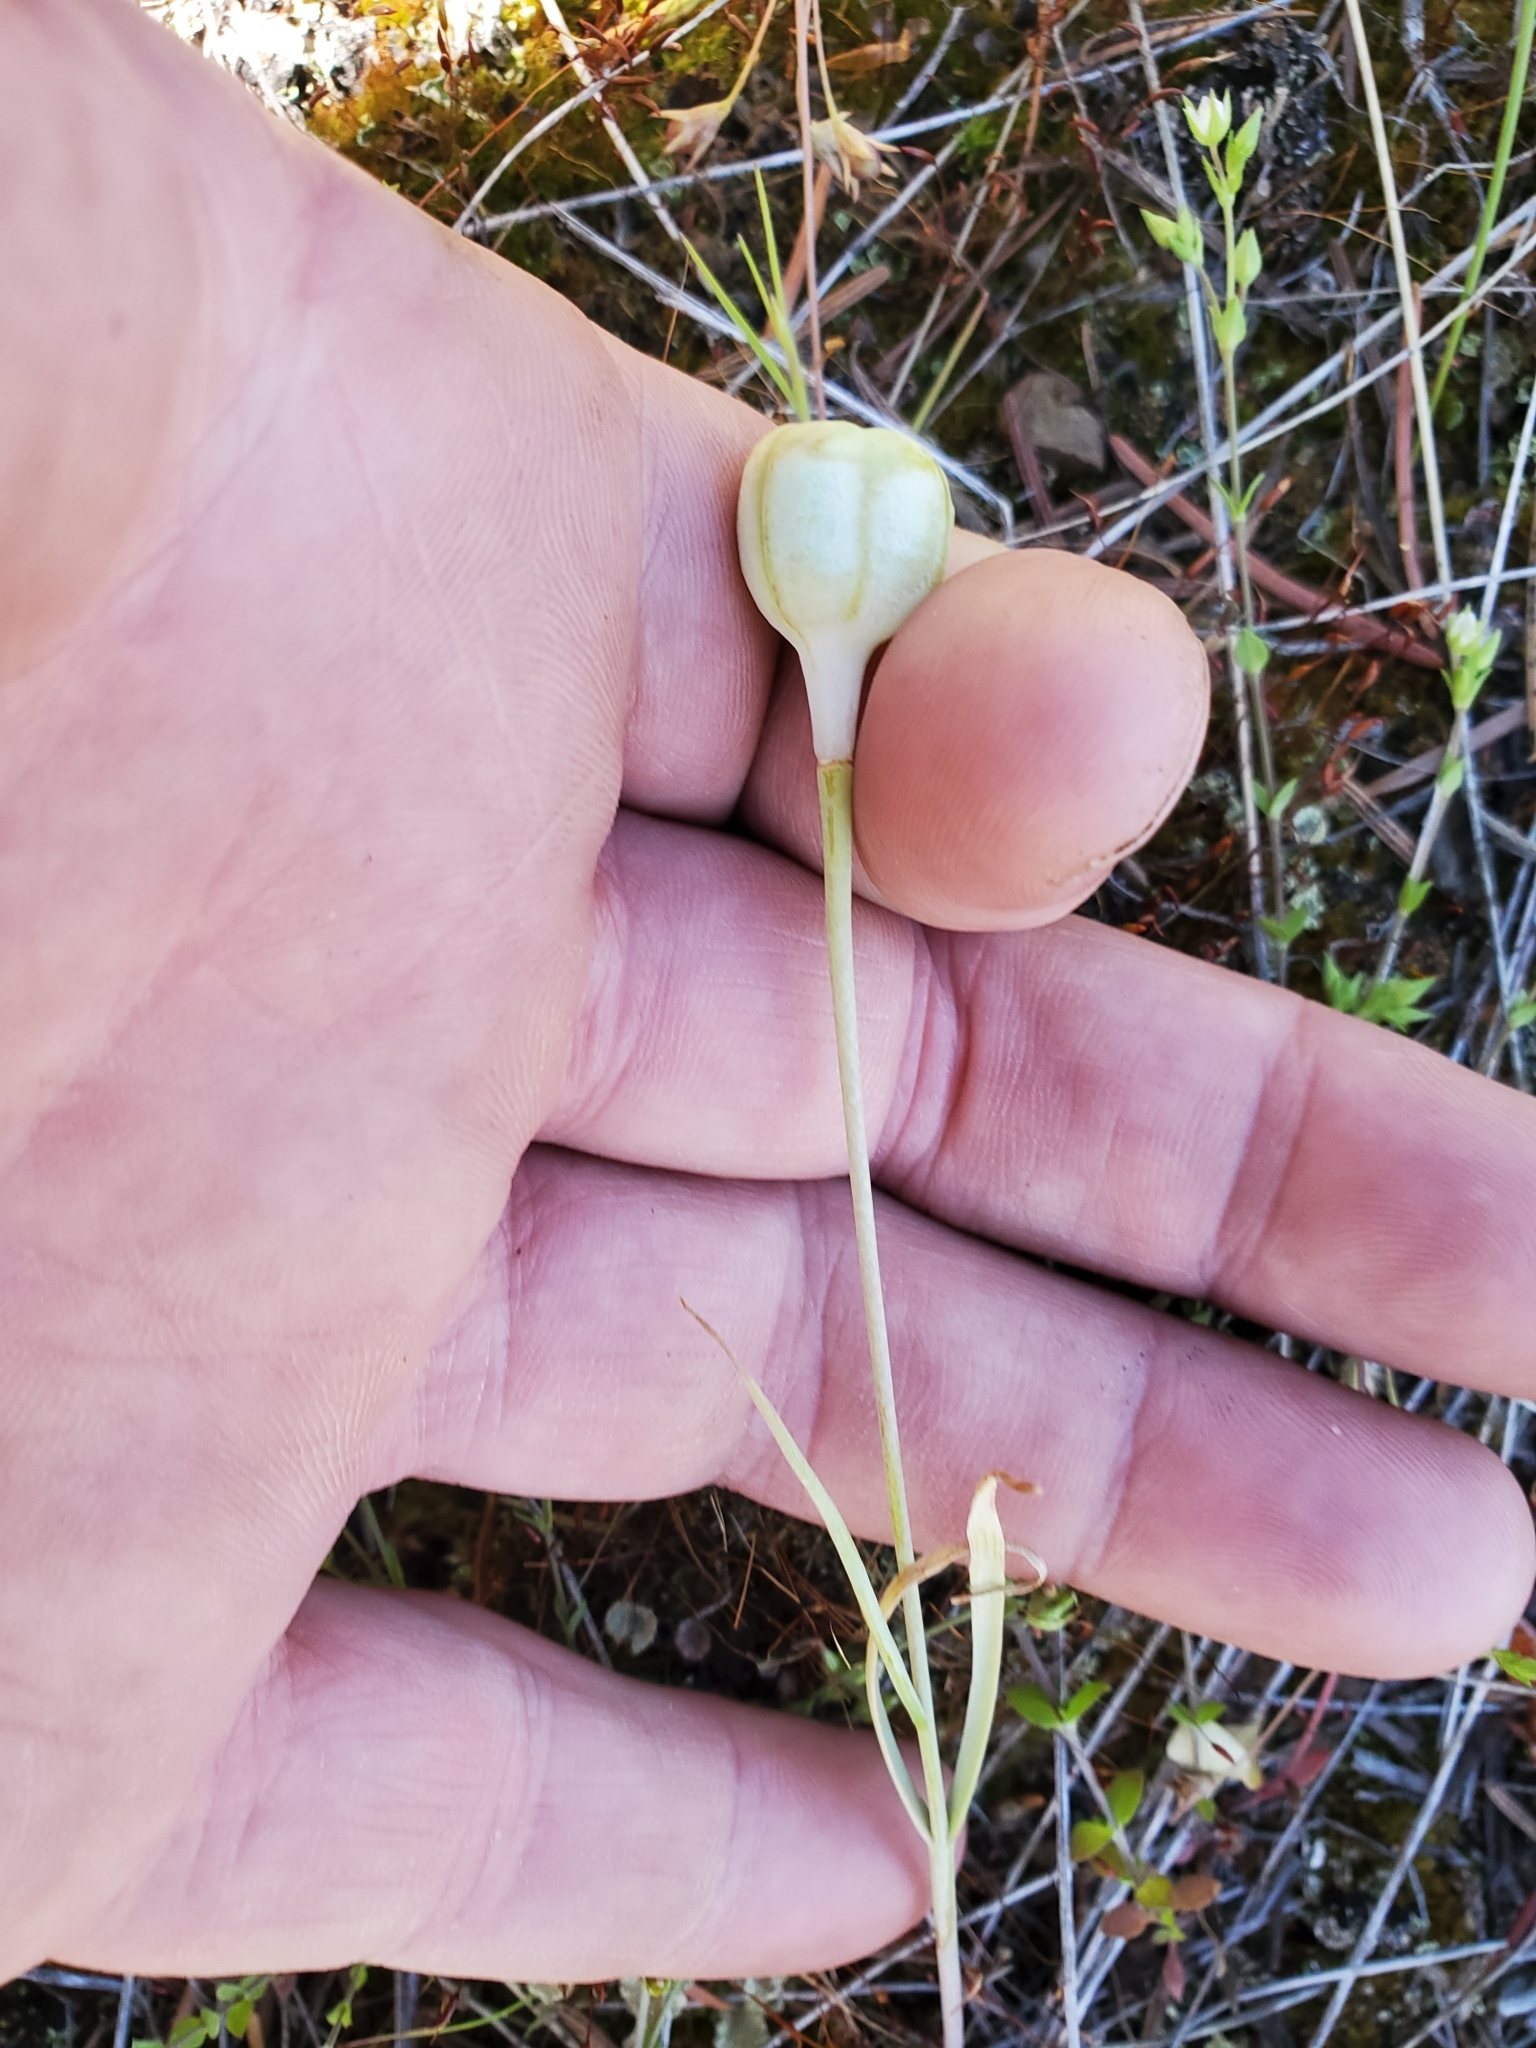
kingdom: Plantae
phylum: Tracheophyta
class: Liliopsida
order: Liliales
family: Liliaceae
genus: Fritillaria
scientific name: Fritillaria pudica
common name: Yellow fritillary
